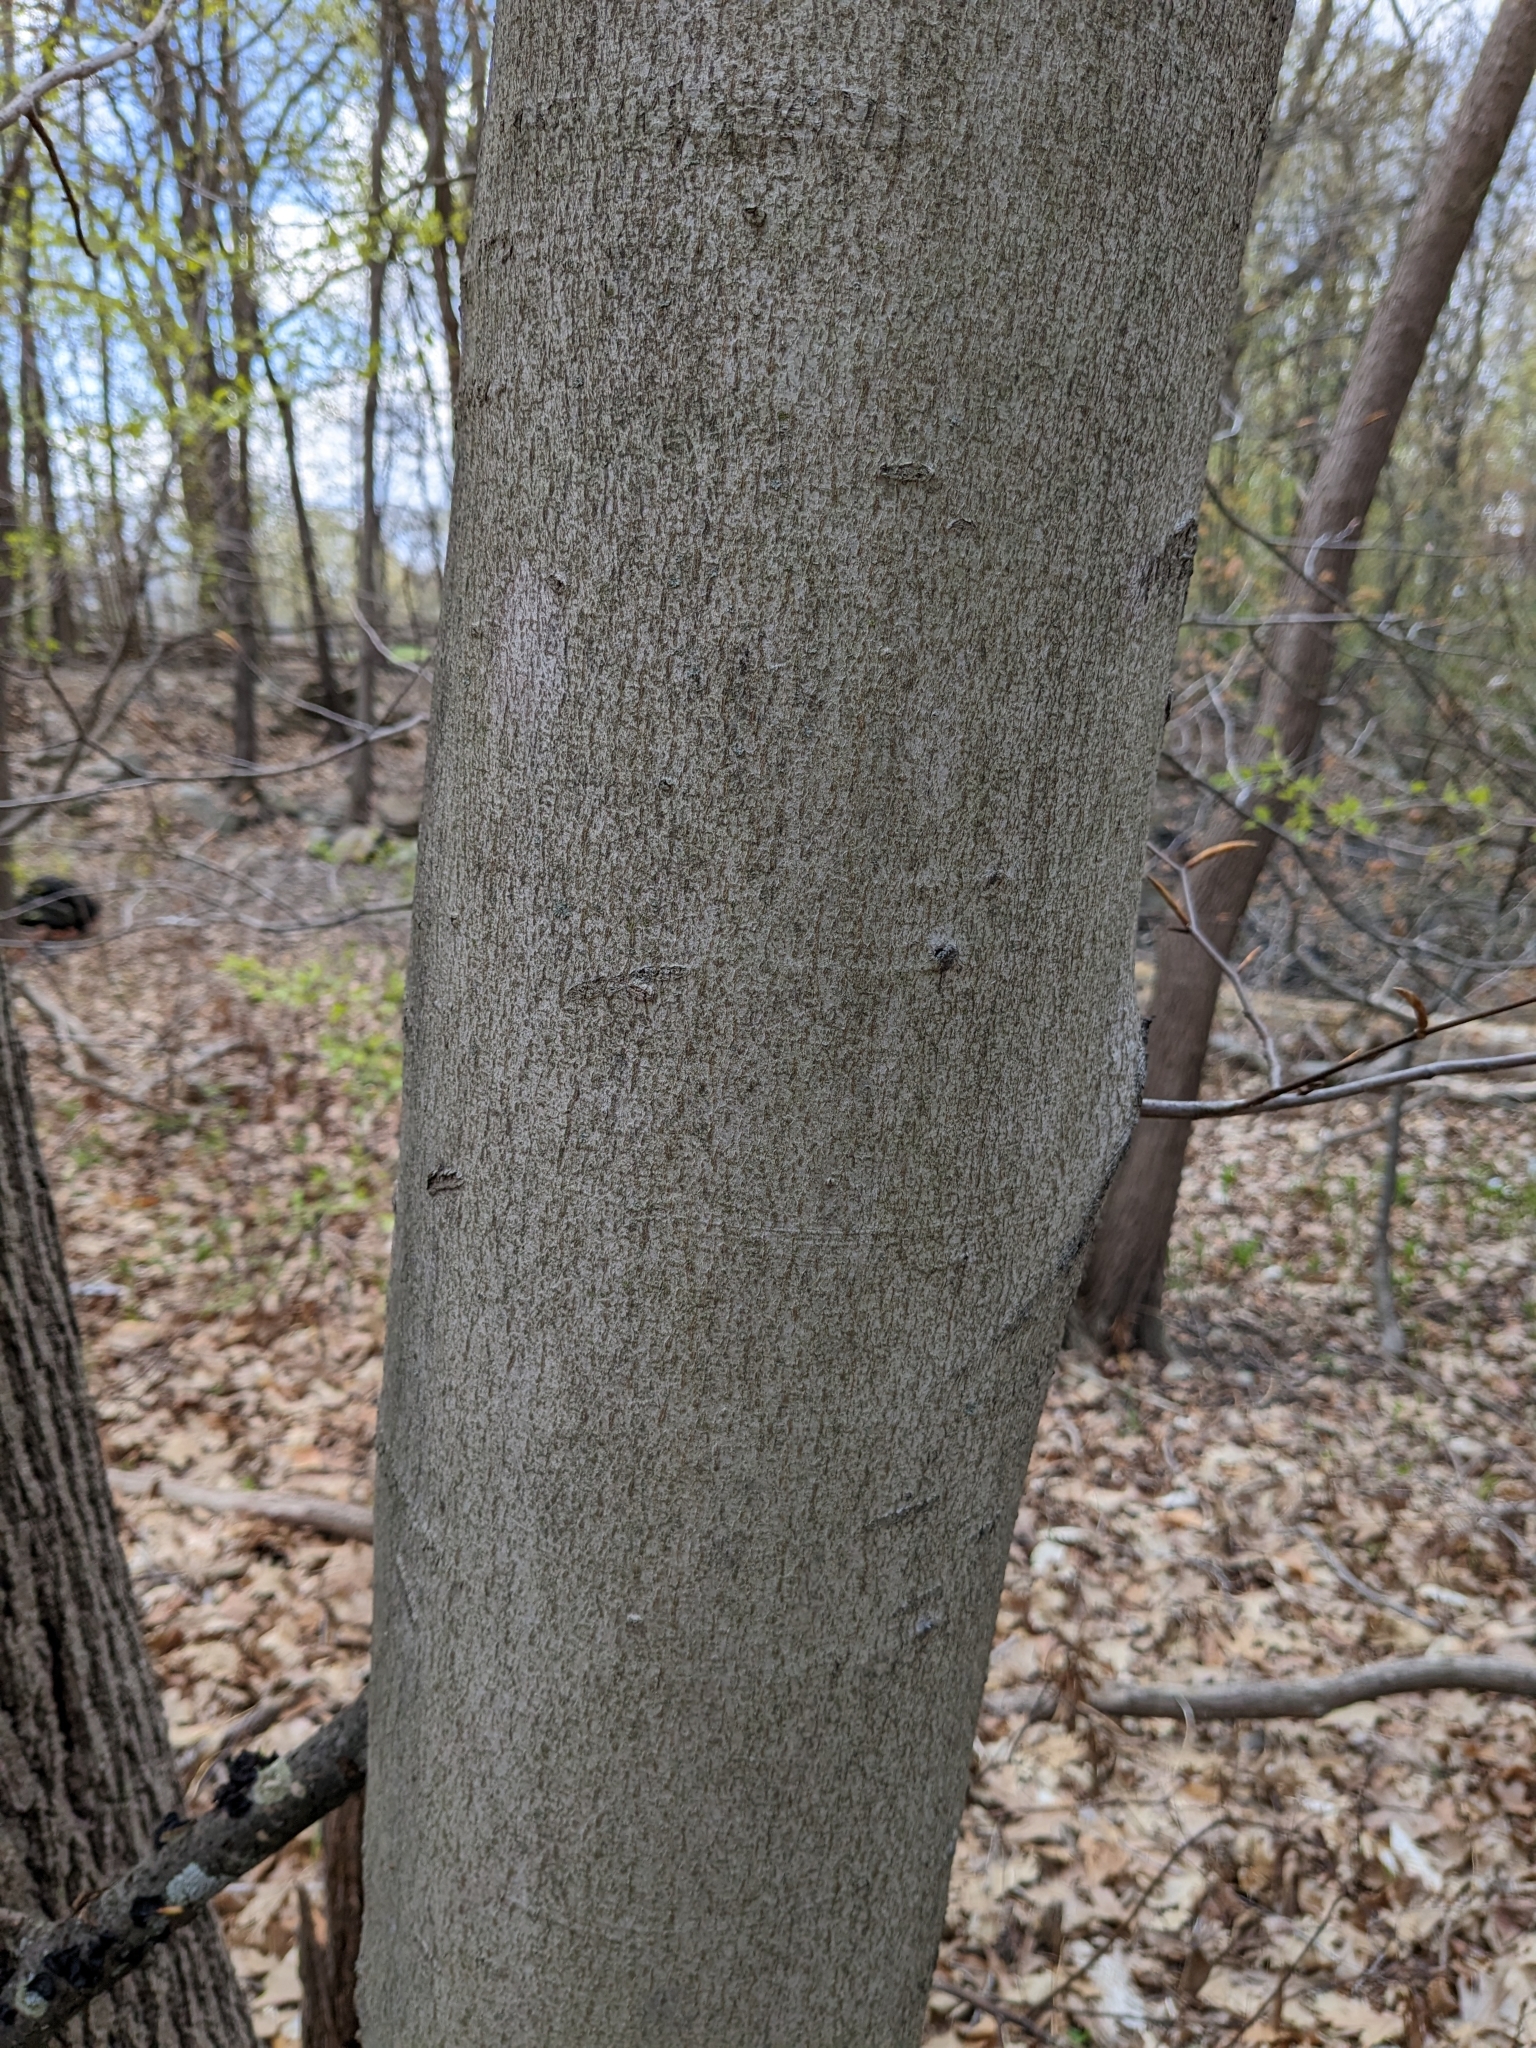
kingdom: Plantae
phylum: Tracheophyta
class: Magnoliopsida
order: Fagales
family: Fagaceae
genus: Fagus
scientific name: Fagus grandifolia
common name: American beech
